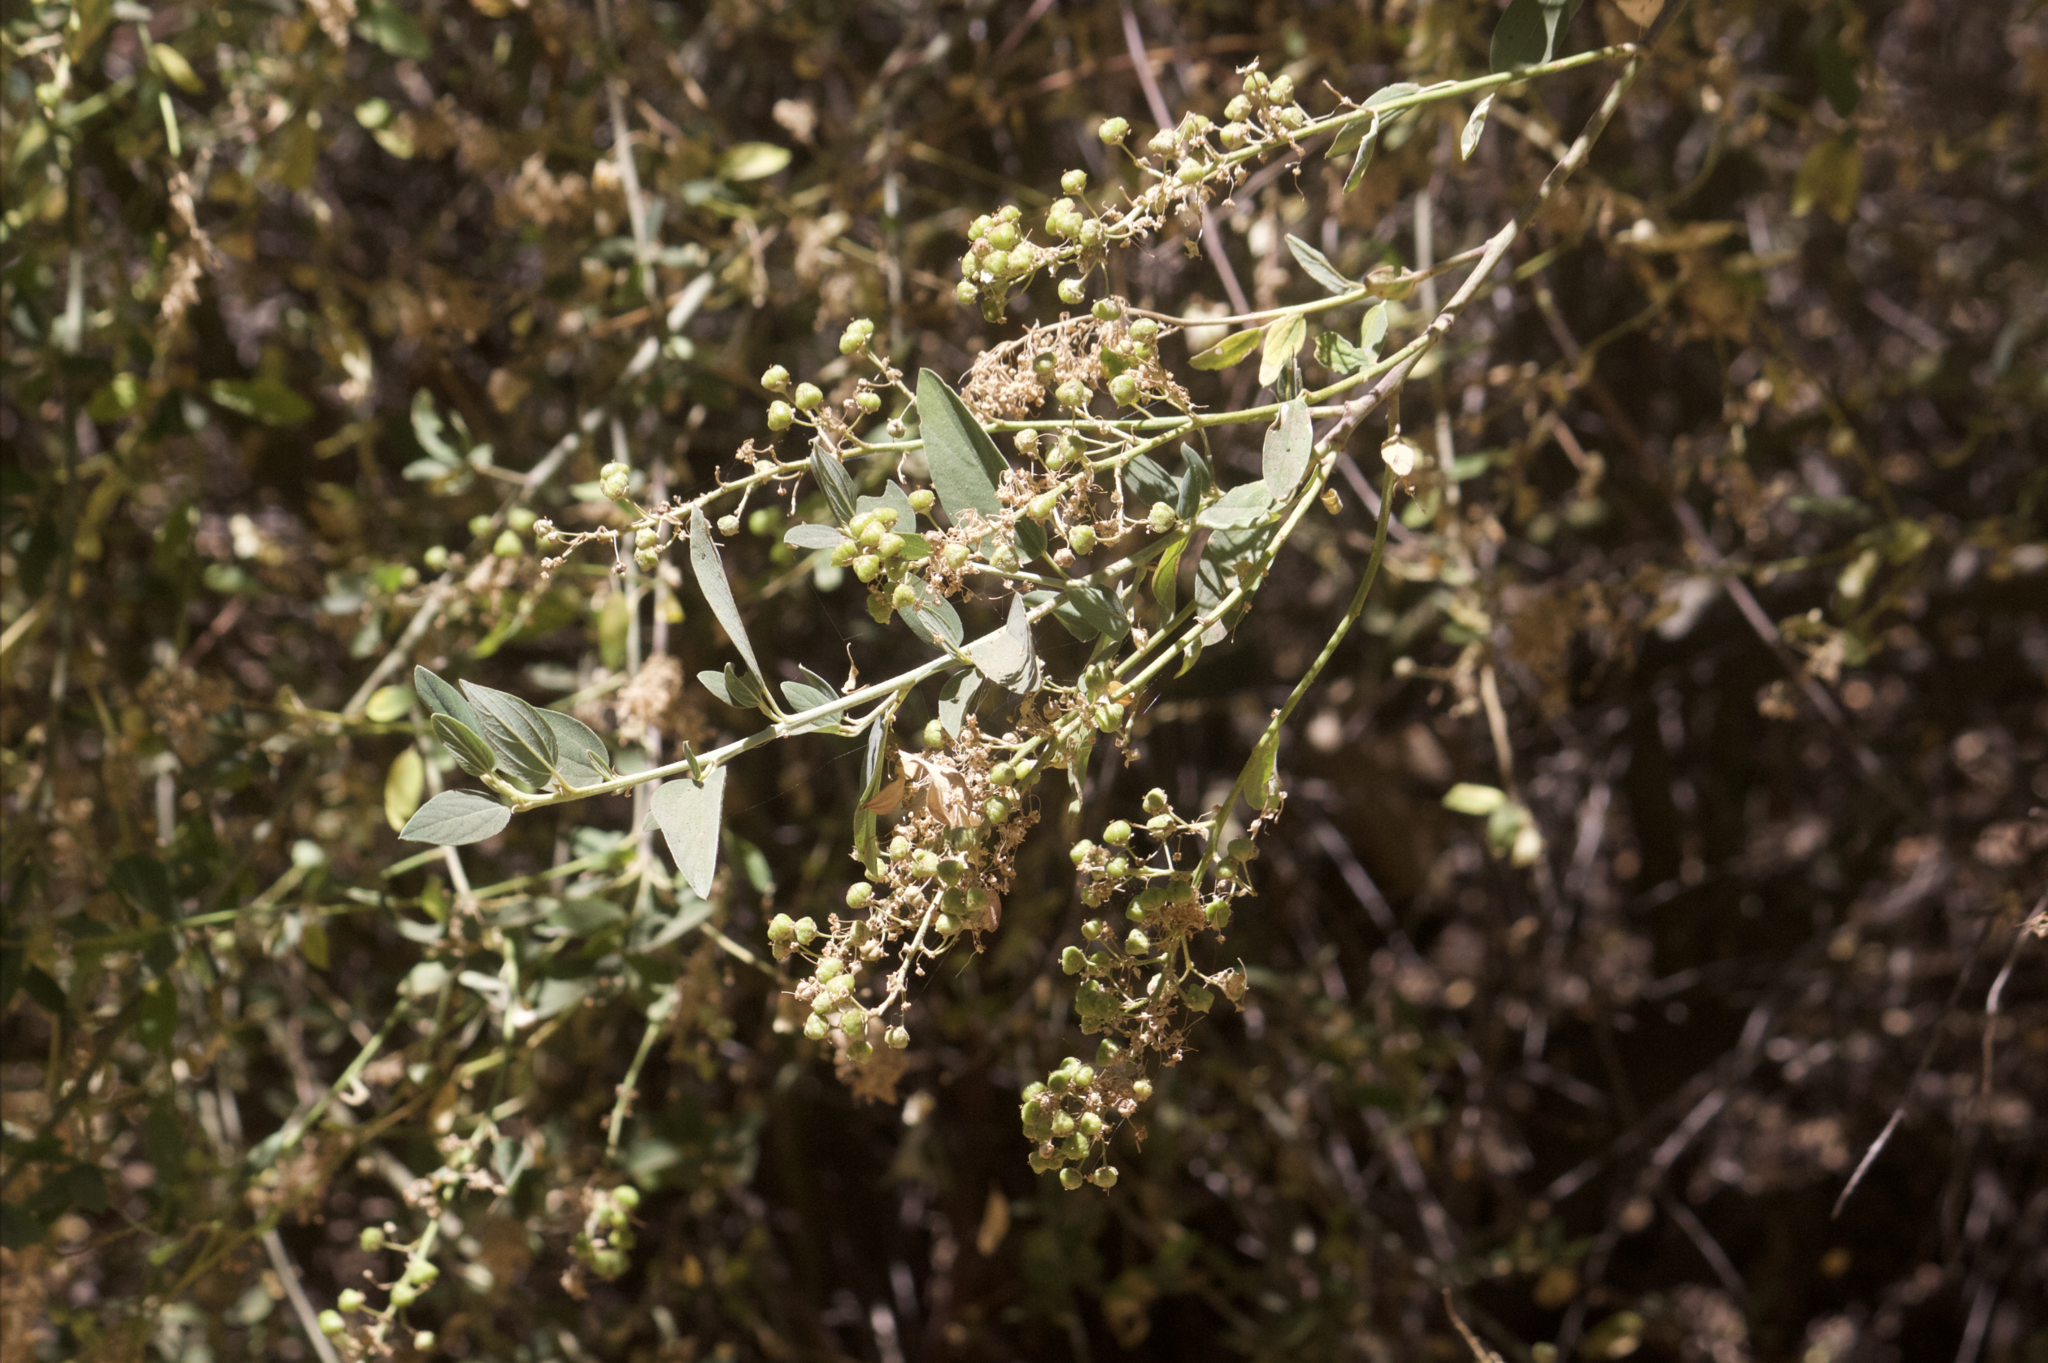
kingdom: Plantae
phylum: Tracheophyta
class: Magnoliopsida
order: Rosales
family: Rhamnaceae
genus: Ceanothus
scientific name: Ceanothus integerrimus
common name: Deerbrush ceanothus
